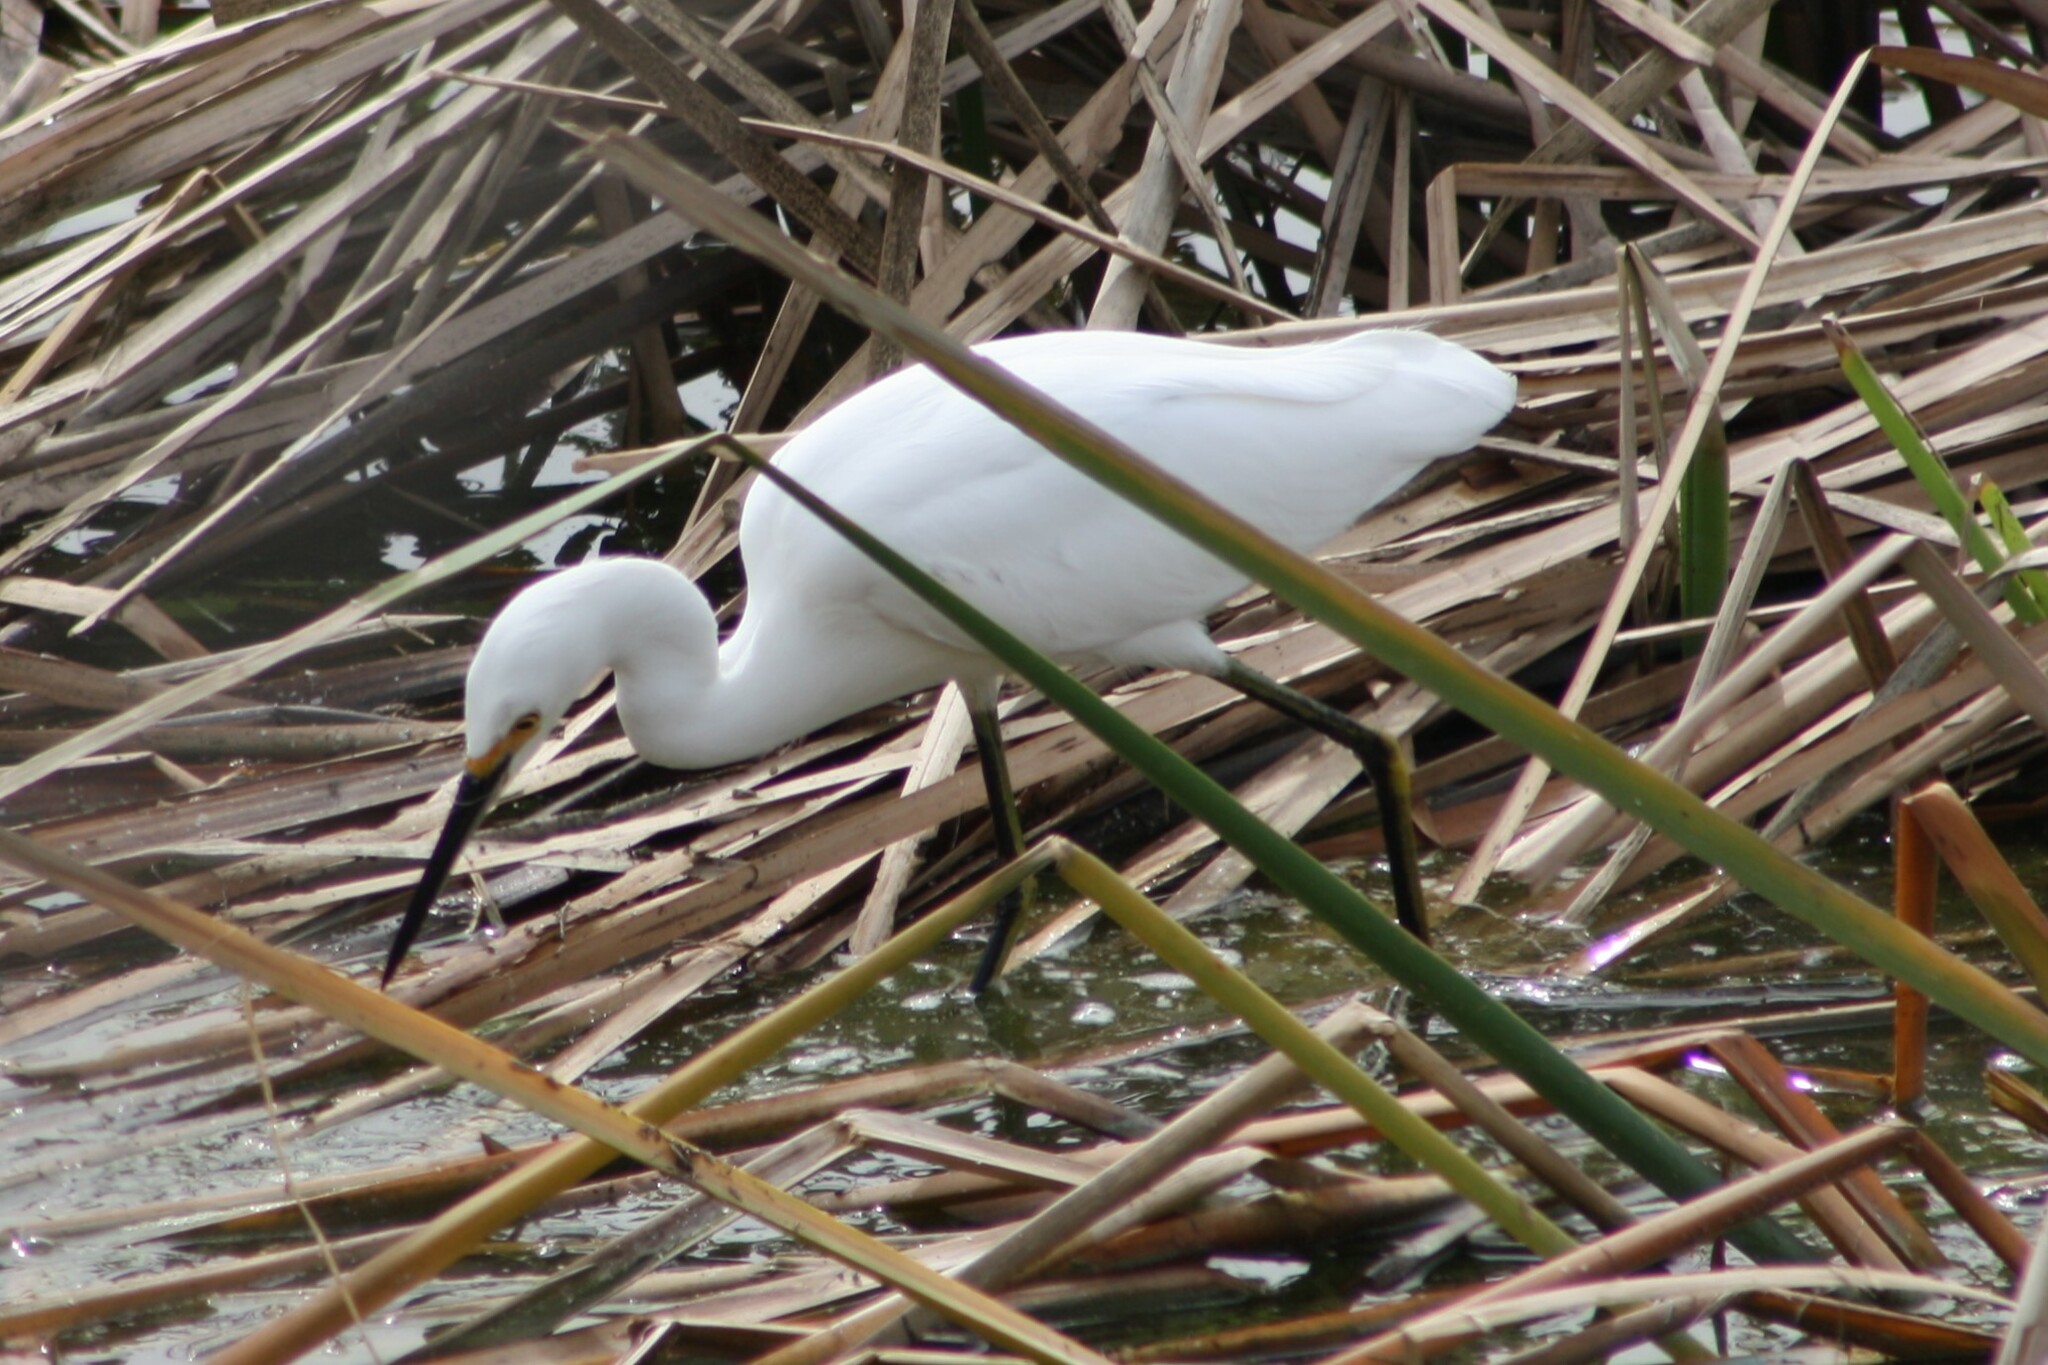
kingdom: Animalia
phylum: Chordata
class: Aves
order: Pelecaniformes
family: Ardeidae
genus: Egretta
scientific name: Egretta thula
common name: Snowy egret
